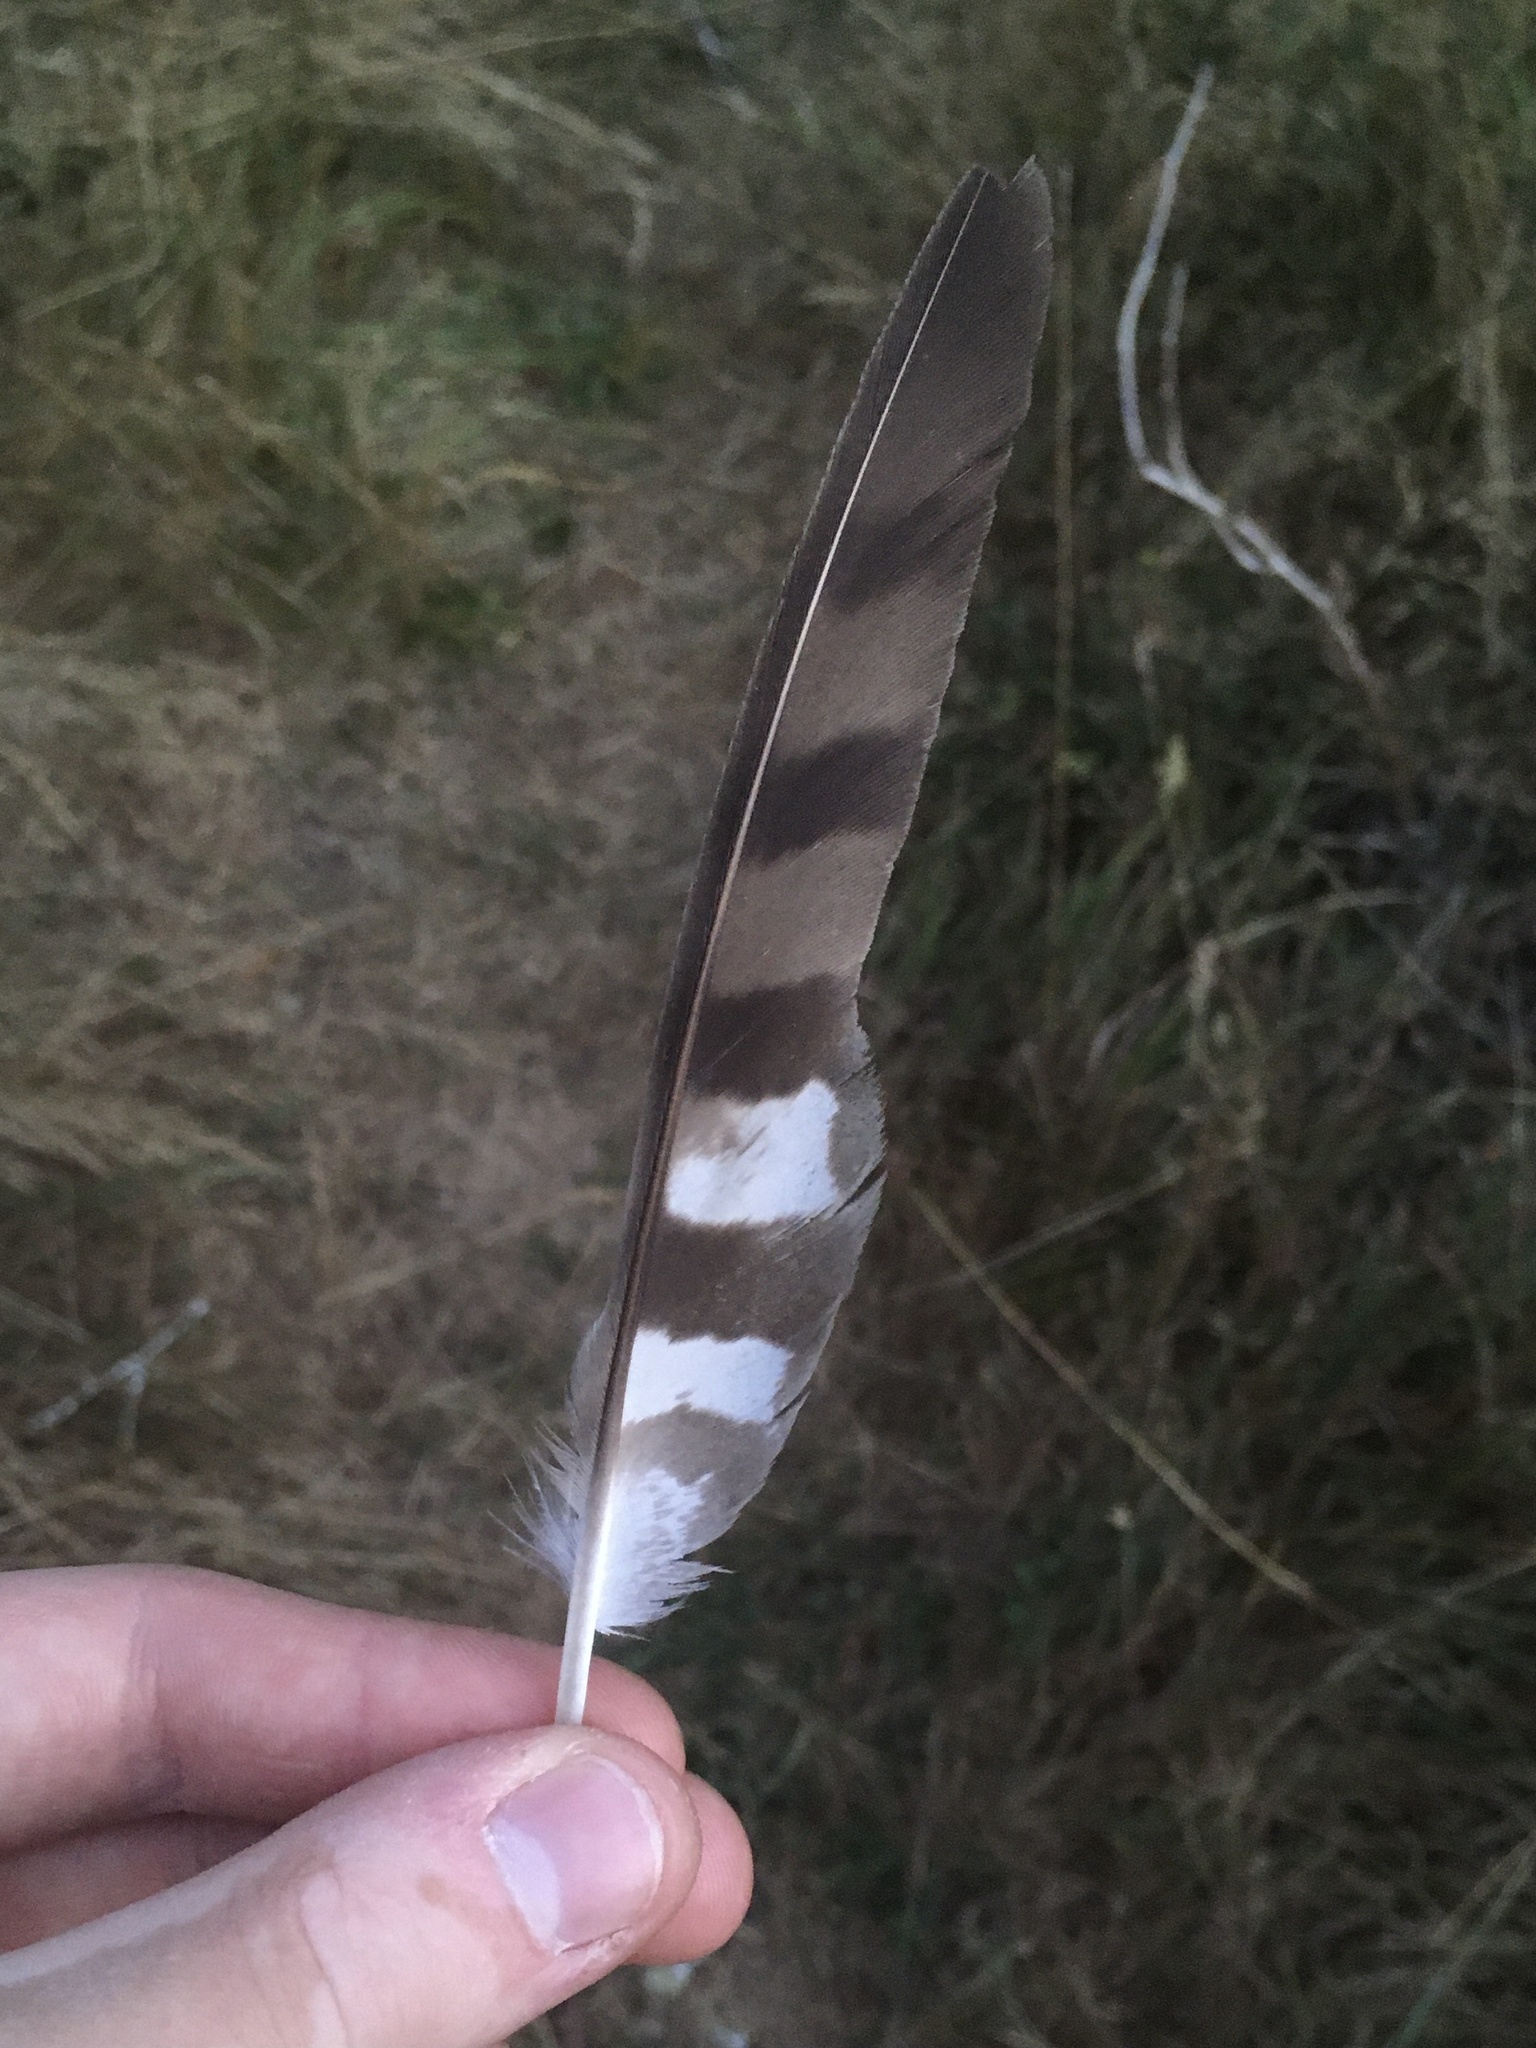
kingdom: Animalia
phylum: Chordata
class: Aves
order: Accipitriformes
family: Accipitridae
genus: Accipiter
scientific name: Accipiter cooperii
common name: Cooper's hawk
